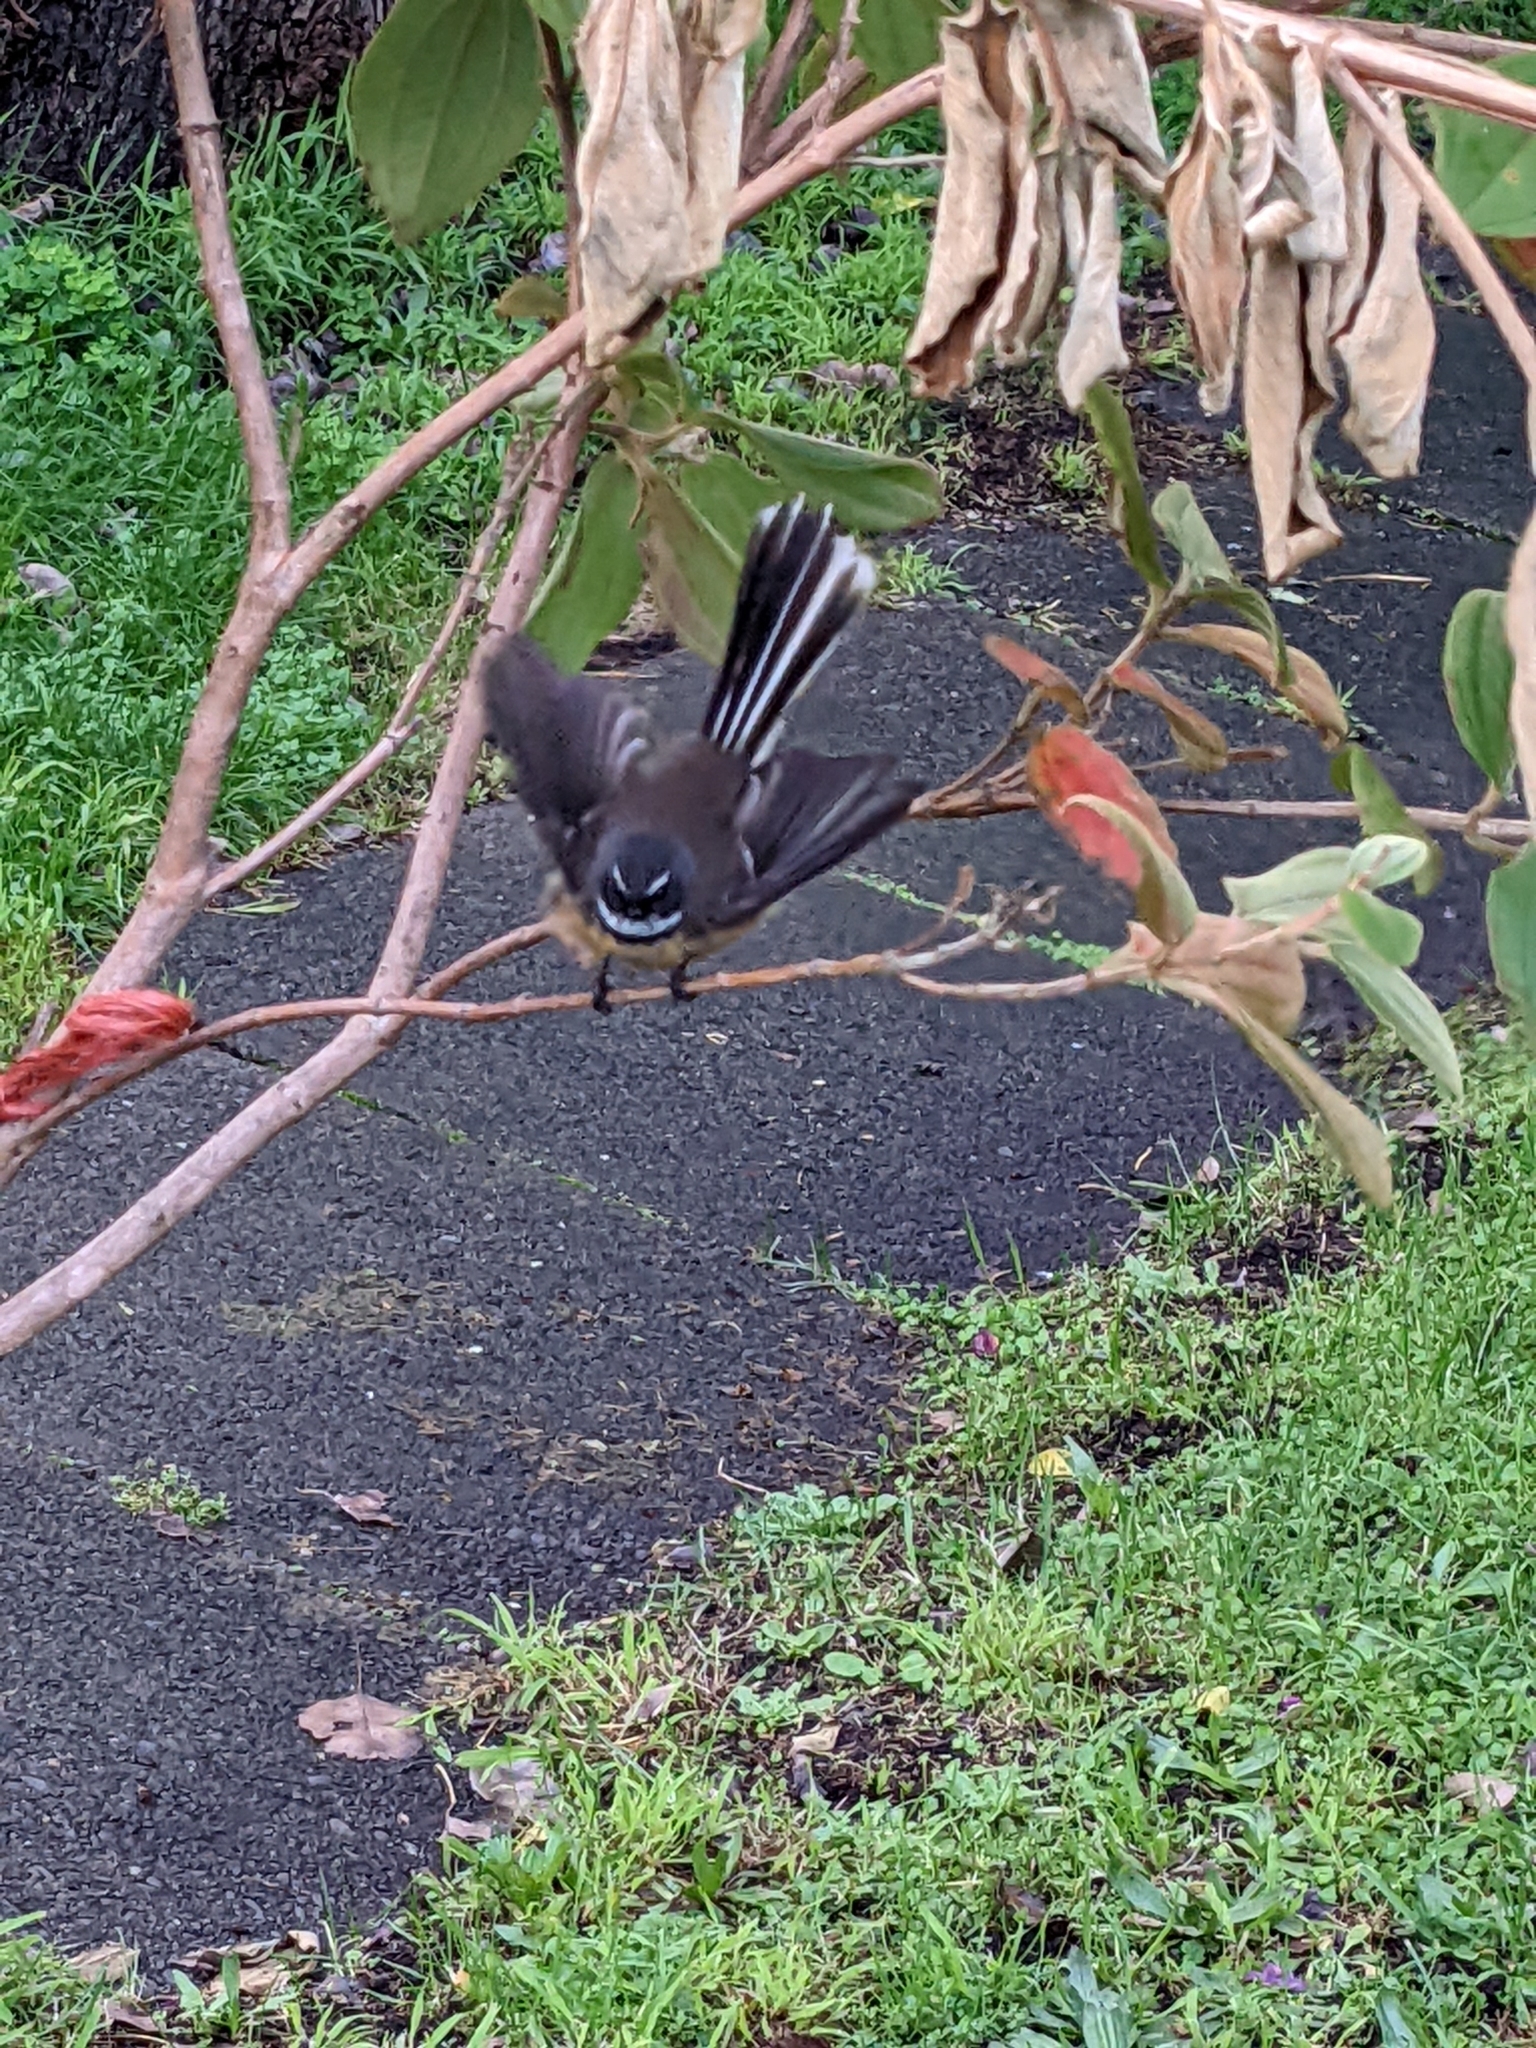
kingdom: Animalia
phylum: Chordata
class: Aves
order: Passeriformes
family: Rhipiduridae
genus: Rhipidura
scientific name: Rhipidura fuliginosa
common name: New zealand fantail
